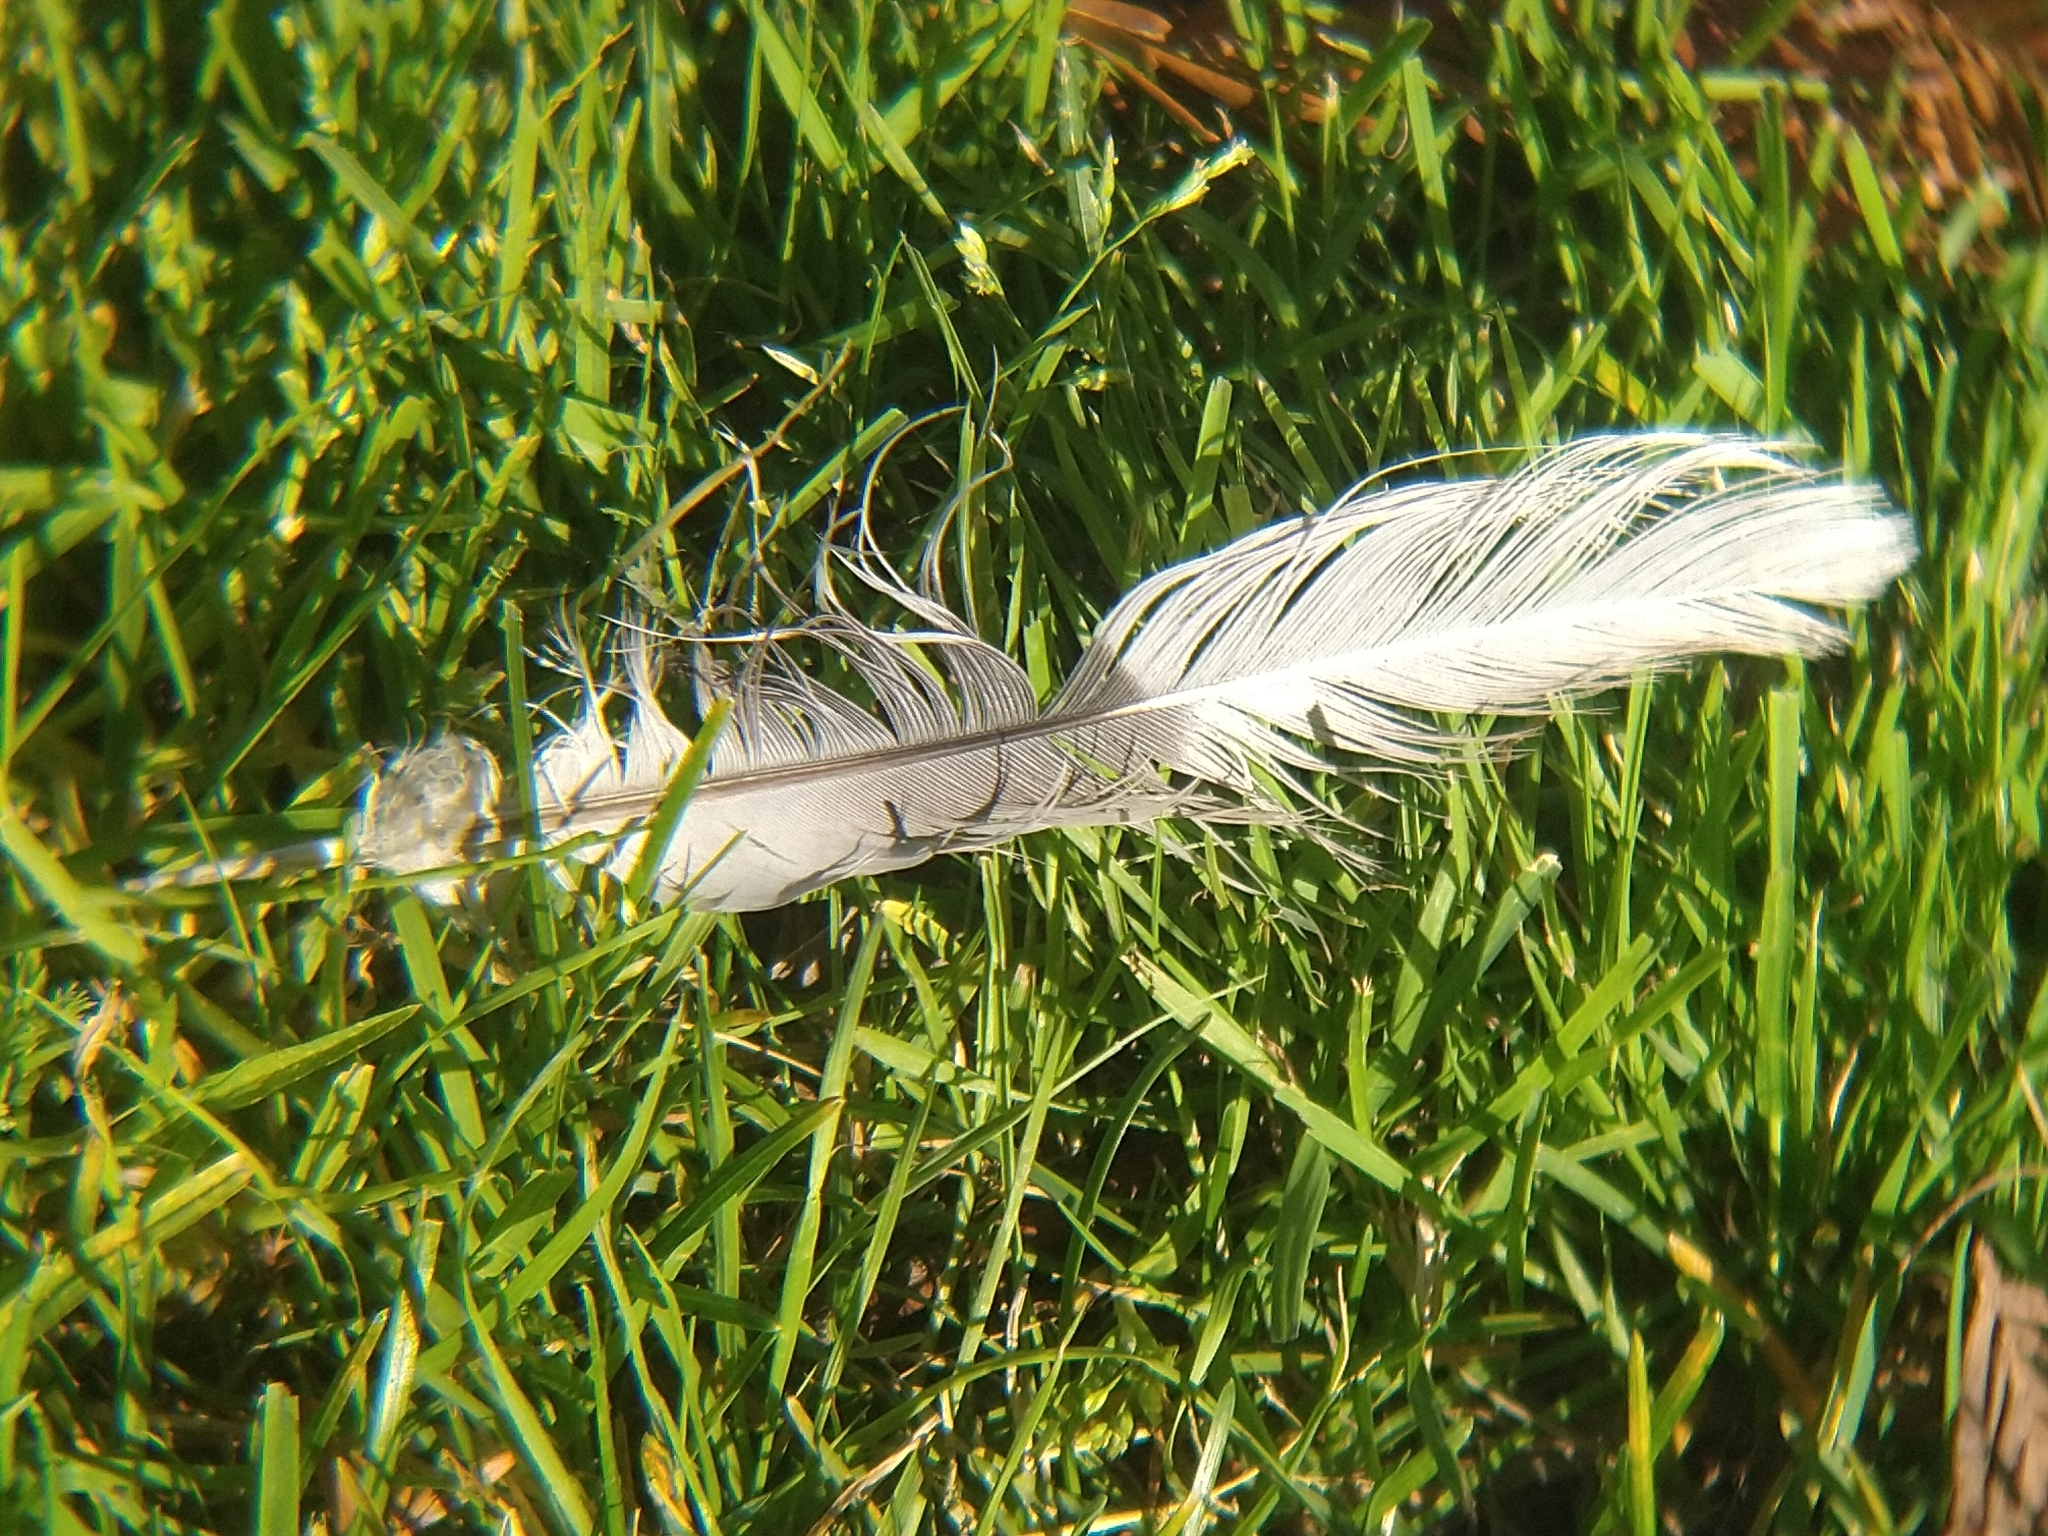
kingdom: Animalia
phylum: Chordata
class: Aves
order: Columbiformes
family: Columbidae
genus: Streptopelia
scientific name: Streptopelia decaocto
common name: Eurasian collared dove
